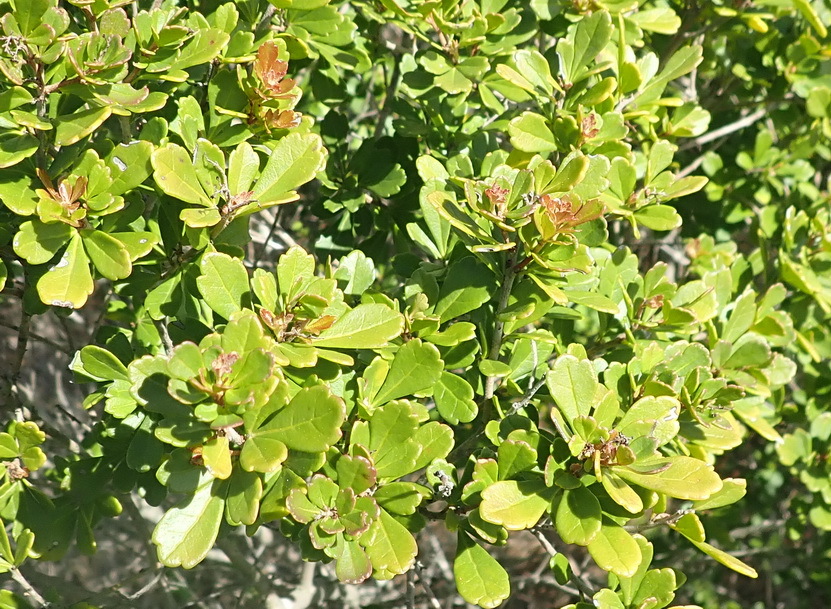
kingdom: Plantae
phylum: Tracheophyta
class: Magnoliopsida
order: Sapindales
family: Anacardiaceae
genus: Searsia
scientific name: Searsia crenata
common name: Crowberry
